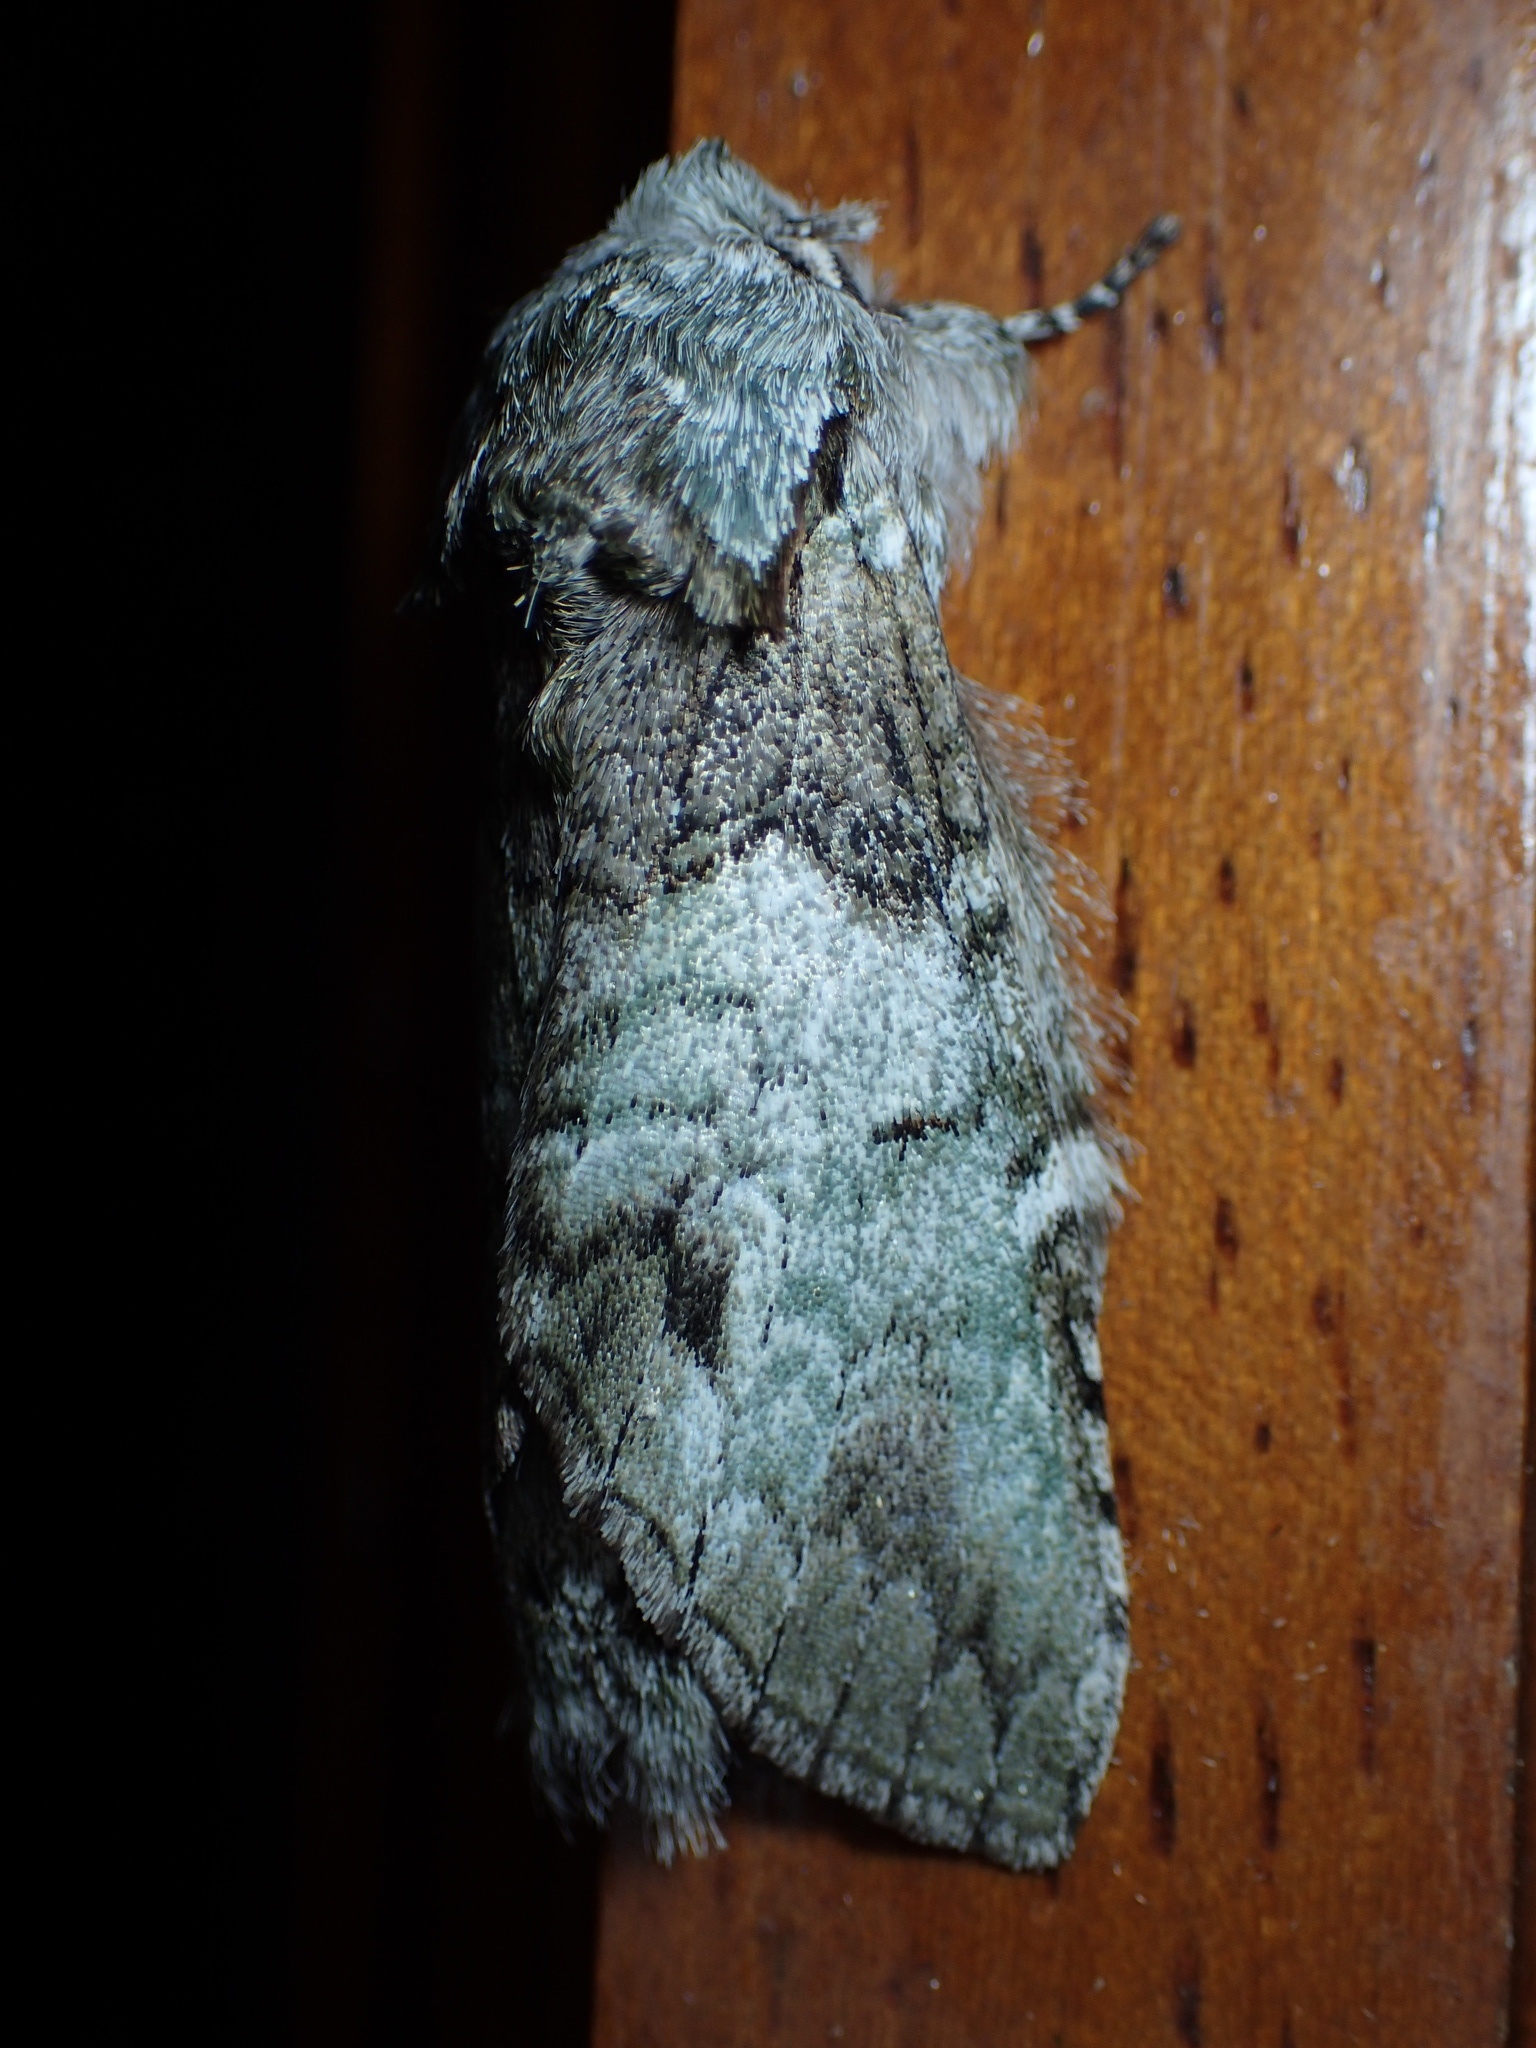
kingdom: Animalia
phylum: Arthropoda
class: Insecta
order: Lepidoptera
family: Notodontidae
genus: Macrurocampa
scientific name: Macrurocampa marthesia
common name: Mottled prominent
